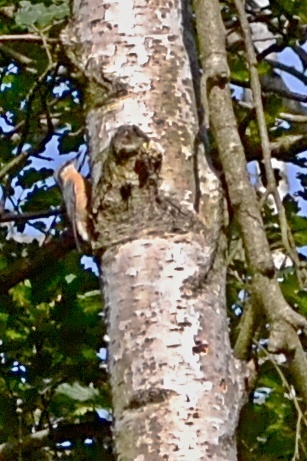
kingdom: Animalia
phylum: Chordata
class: Aves
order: Passeriformes
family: Sittidae
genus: Sitta
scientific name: Sitta europaea
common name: Eurasian nuthatch
